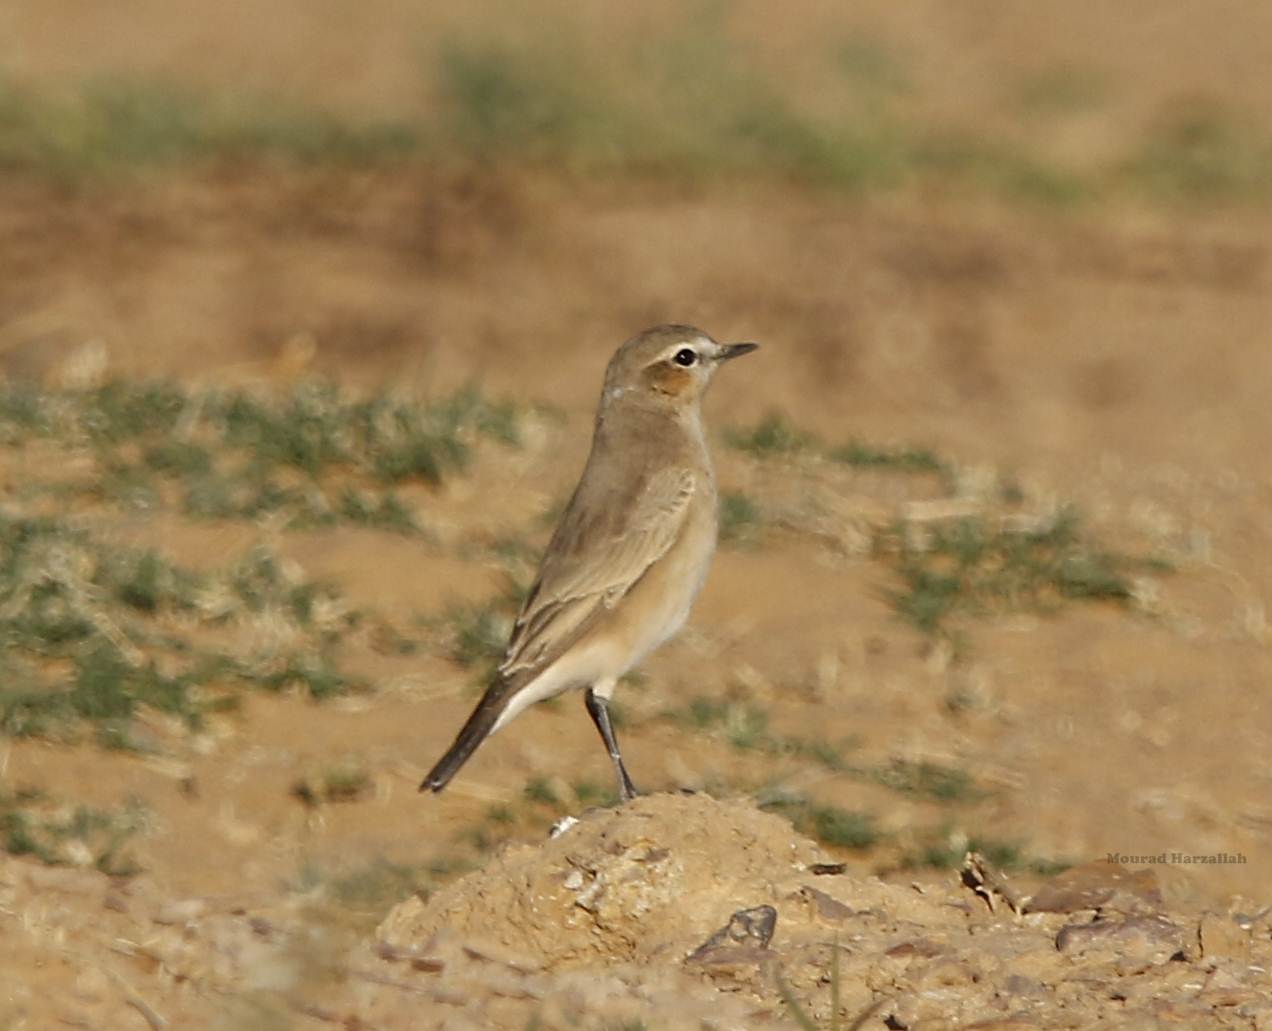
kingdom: Animalia
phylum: Chordata
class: Aves
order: Passeriformes
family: Muscicapidae
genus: Oenanthe
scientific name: Oenanthe isabellina
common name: Isabelline wheatear
